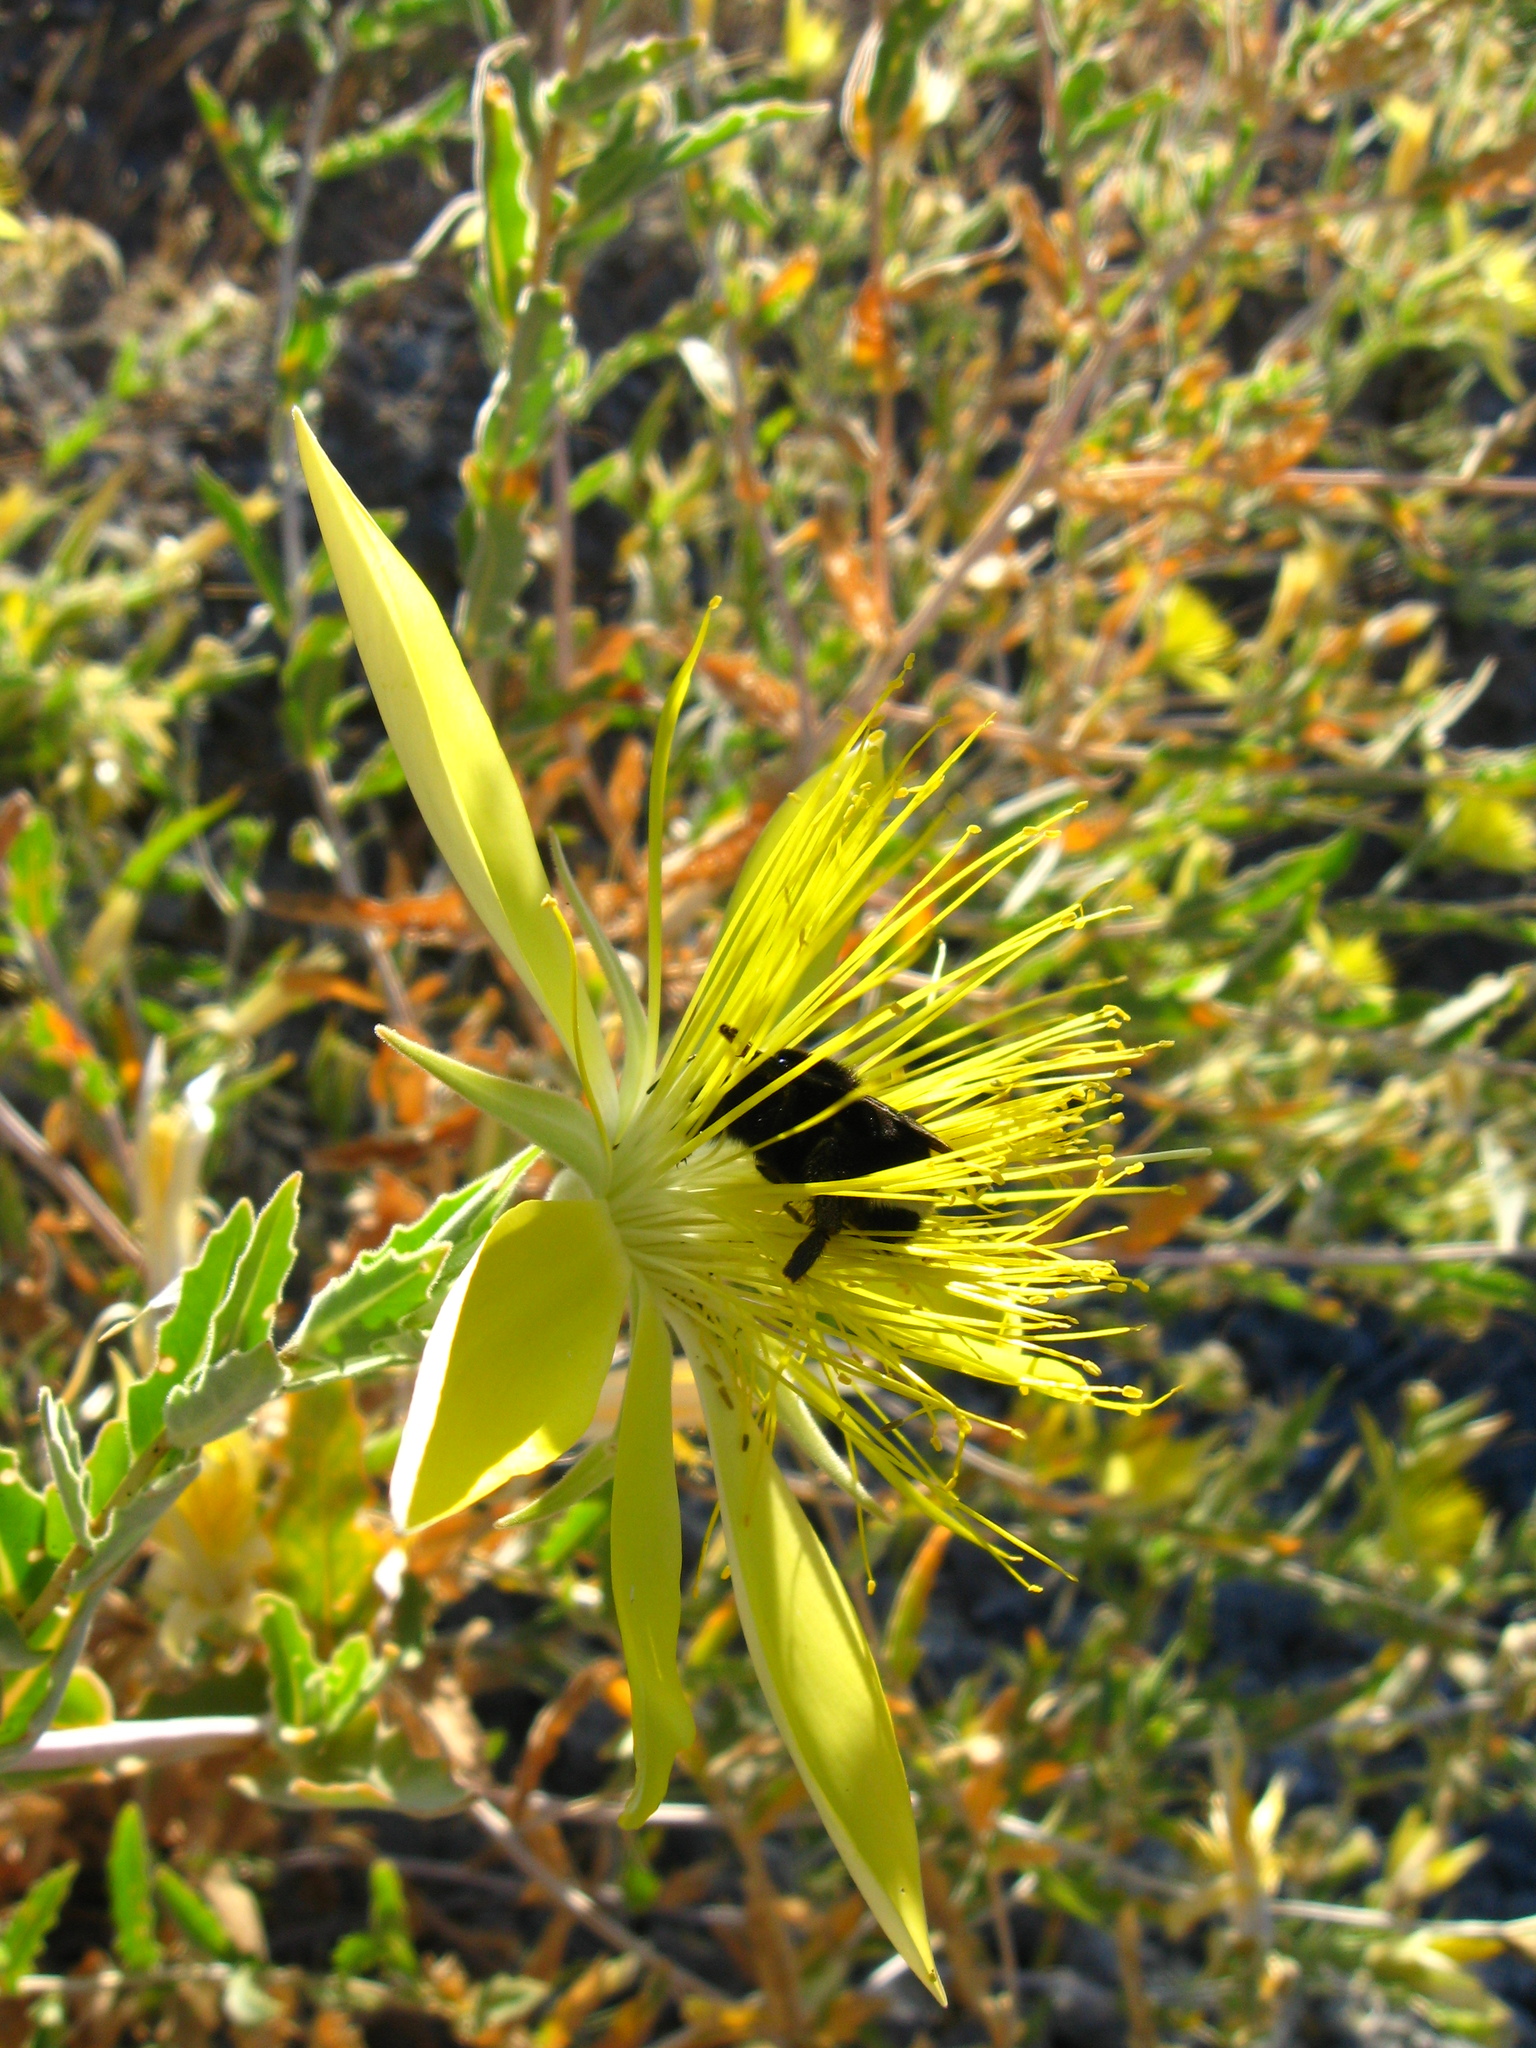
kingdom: Plantae
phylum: Tracheophyta
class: Magnoliopsida
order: Cornales
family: Loasaceae
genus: Mentzelia
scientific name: Mentzelia laevicaulis
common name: Smooth-stem blazingstar
